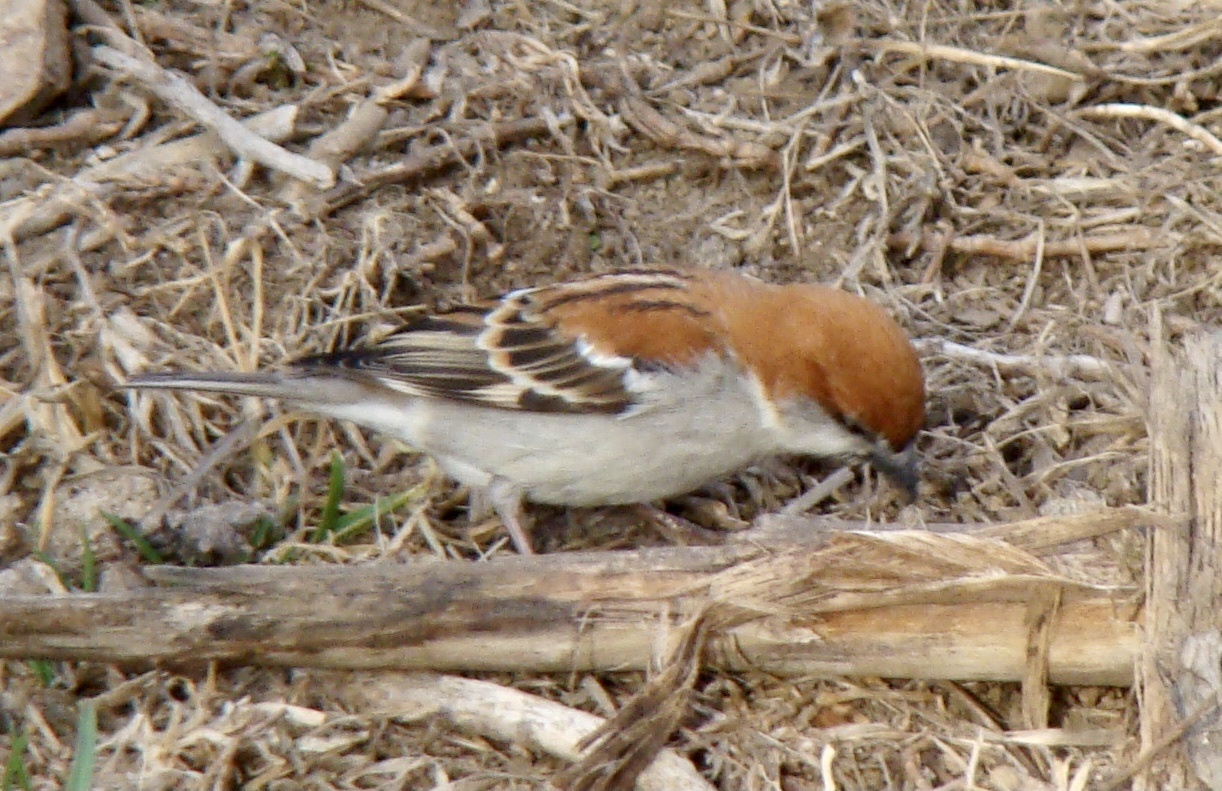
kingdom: Animalia
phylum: Chordata
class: Aves
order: Passeriformes
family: Passeridae
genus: Passer
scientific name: Passer cinnamomeus
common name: Russet sparrow
